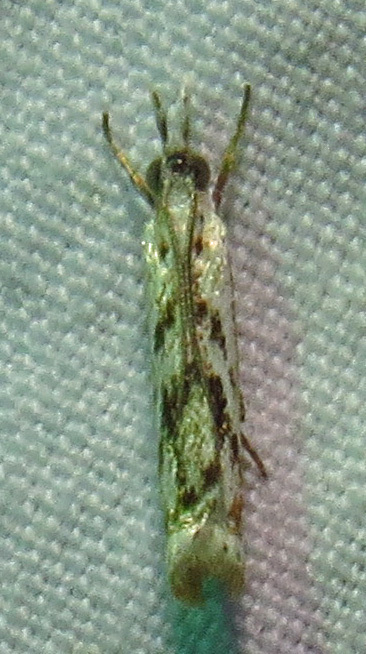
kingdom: Animalia
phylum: Arthropoda
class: Insecta
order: Lepidoptera
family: Crambidae
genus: Microcrambus
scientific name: Microcrambus kimballi
